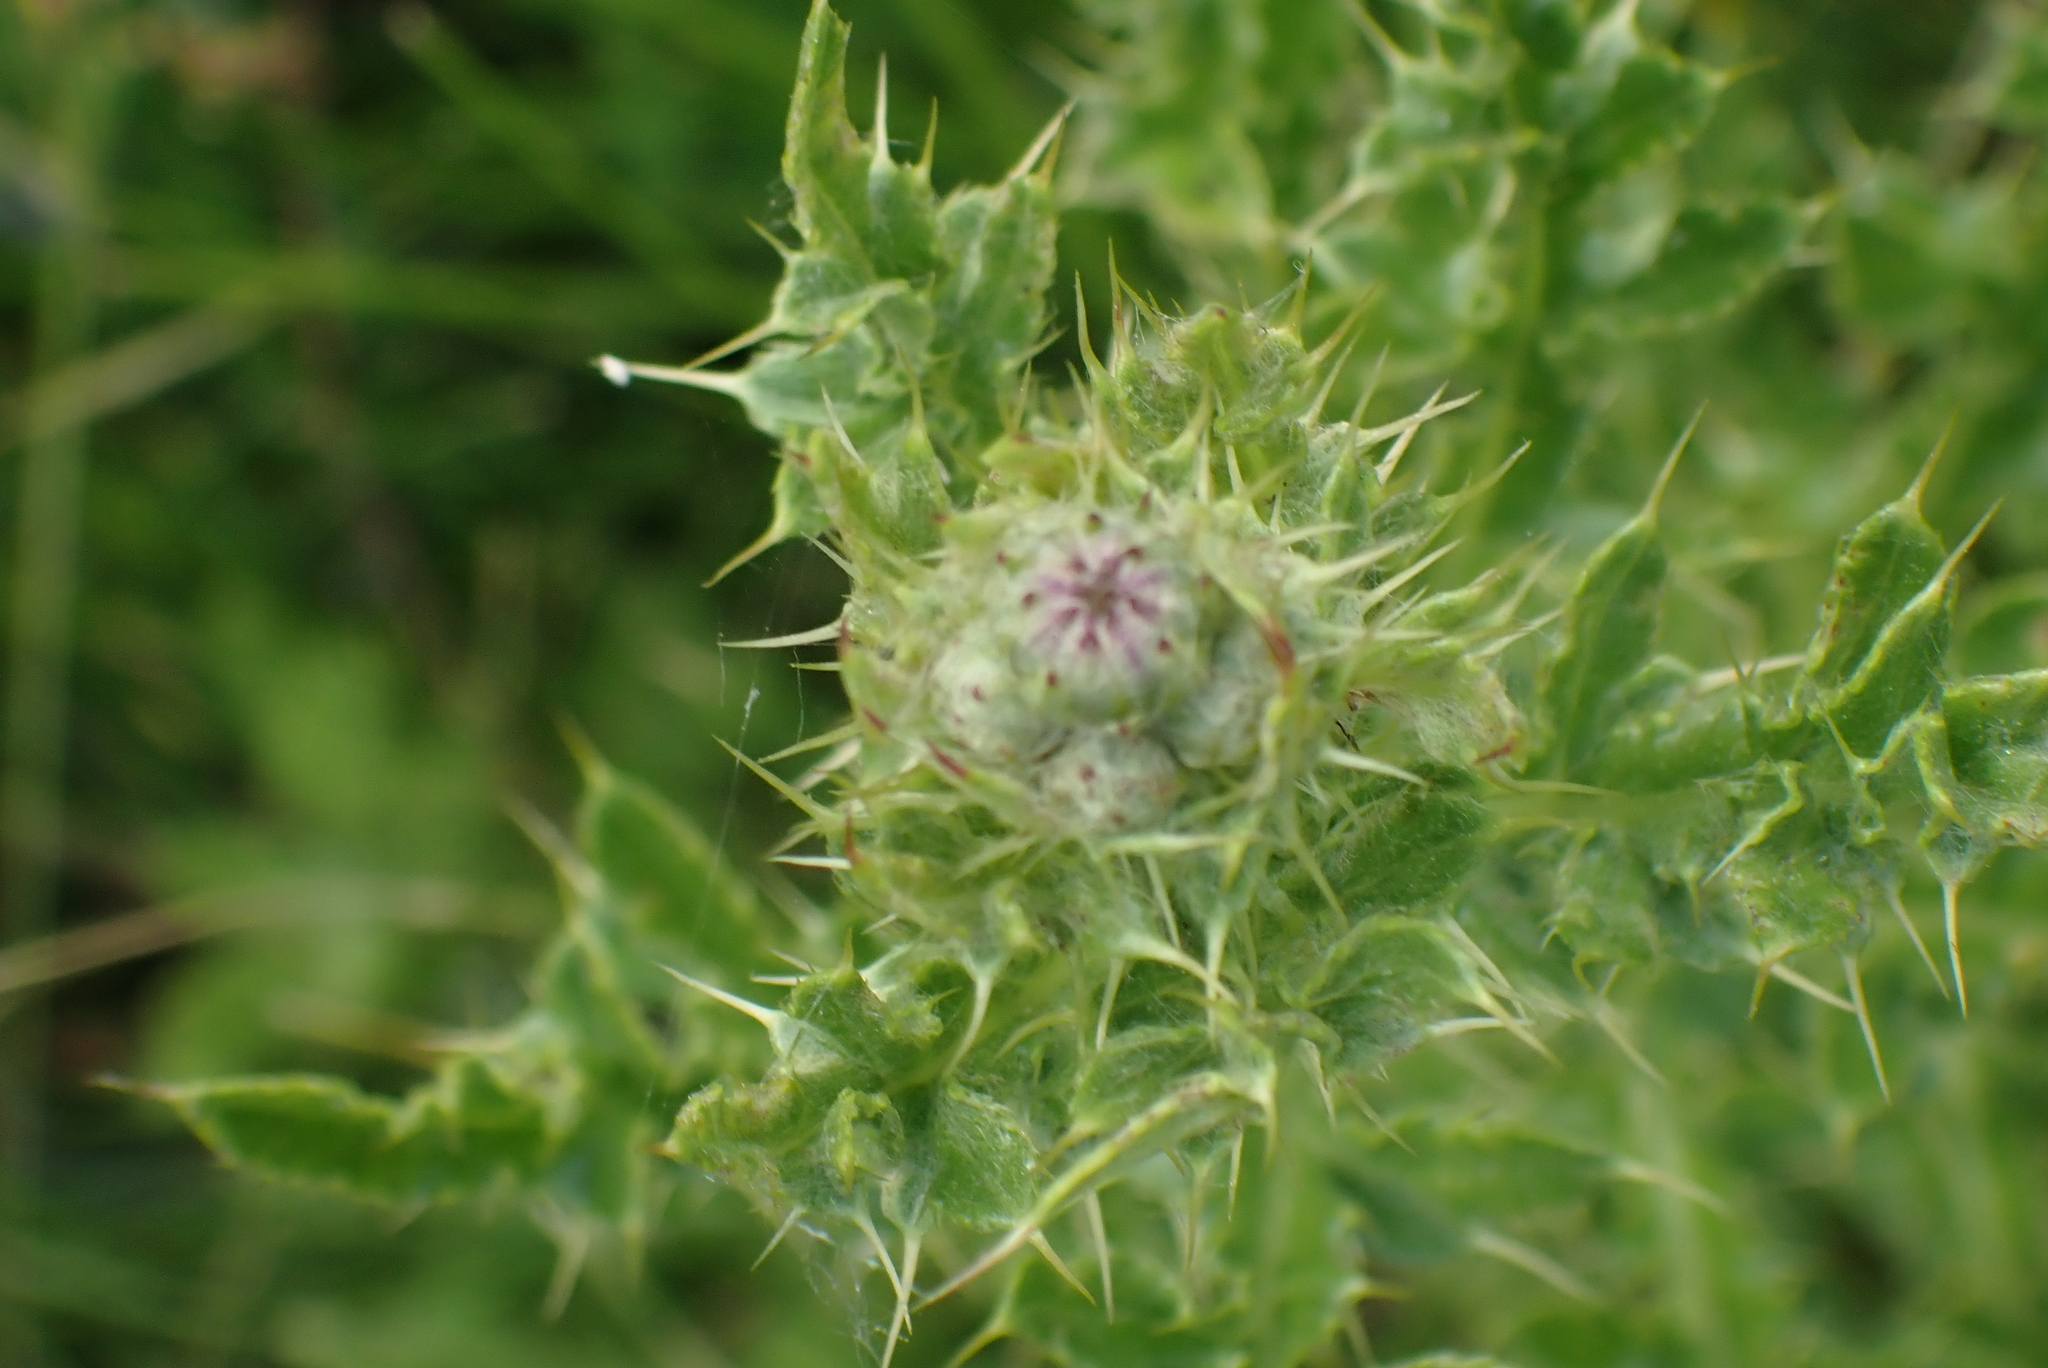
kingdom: Plantae
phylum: Tracheophyta
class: Magnoliopsida
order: Asterales
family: Asteraceae
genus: Cirsium
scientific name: Cirsium arvense
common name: Creeping thistle
